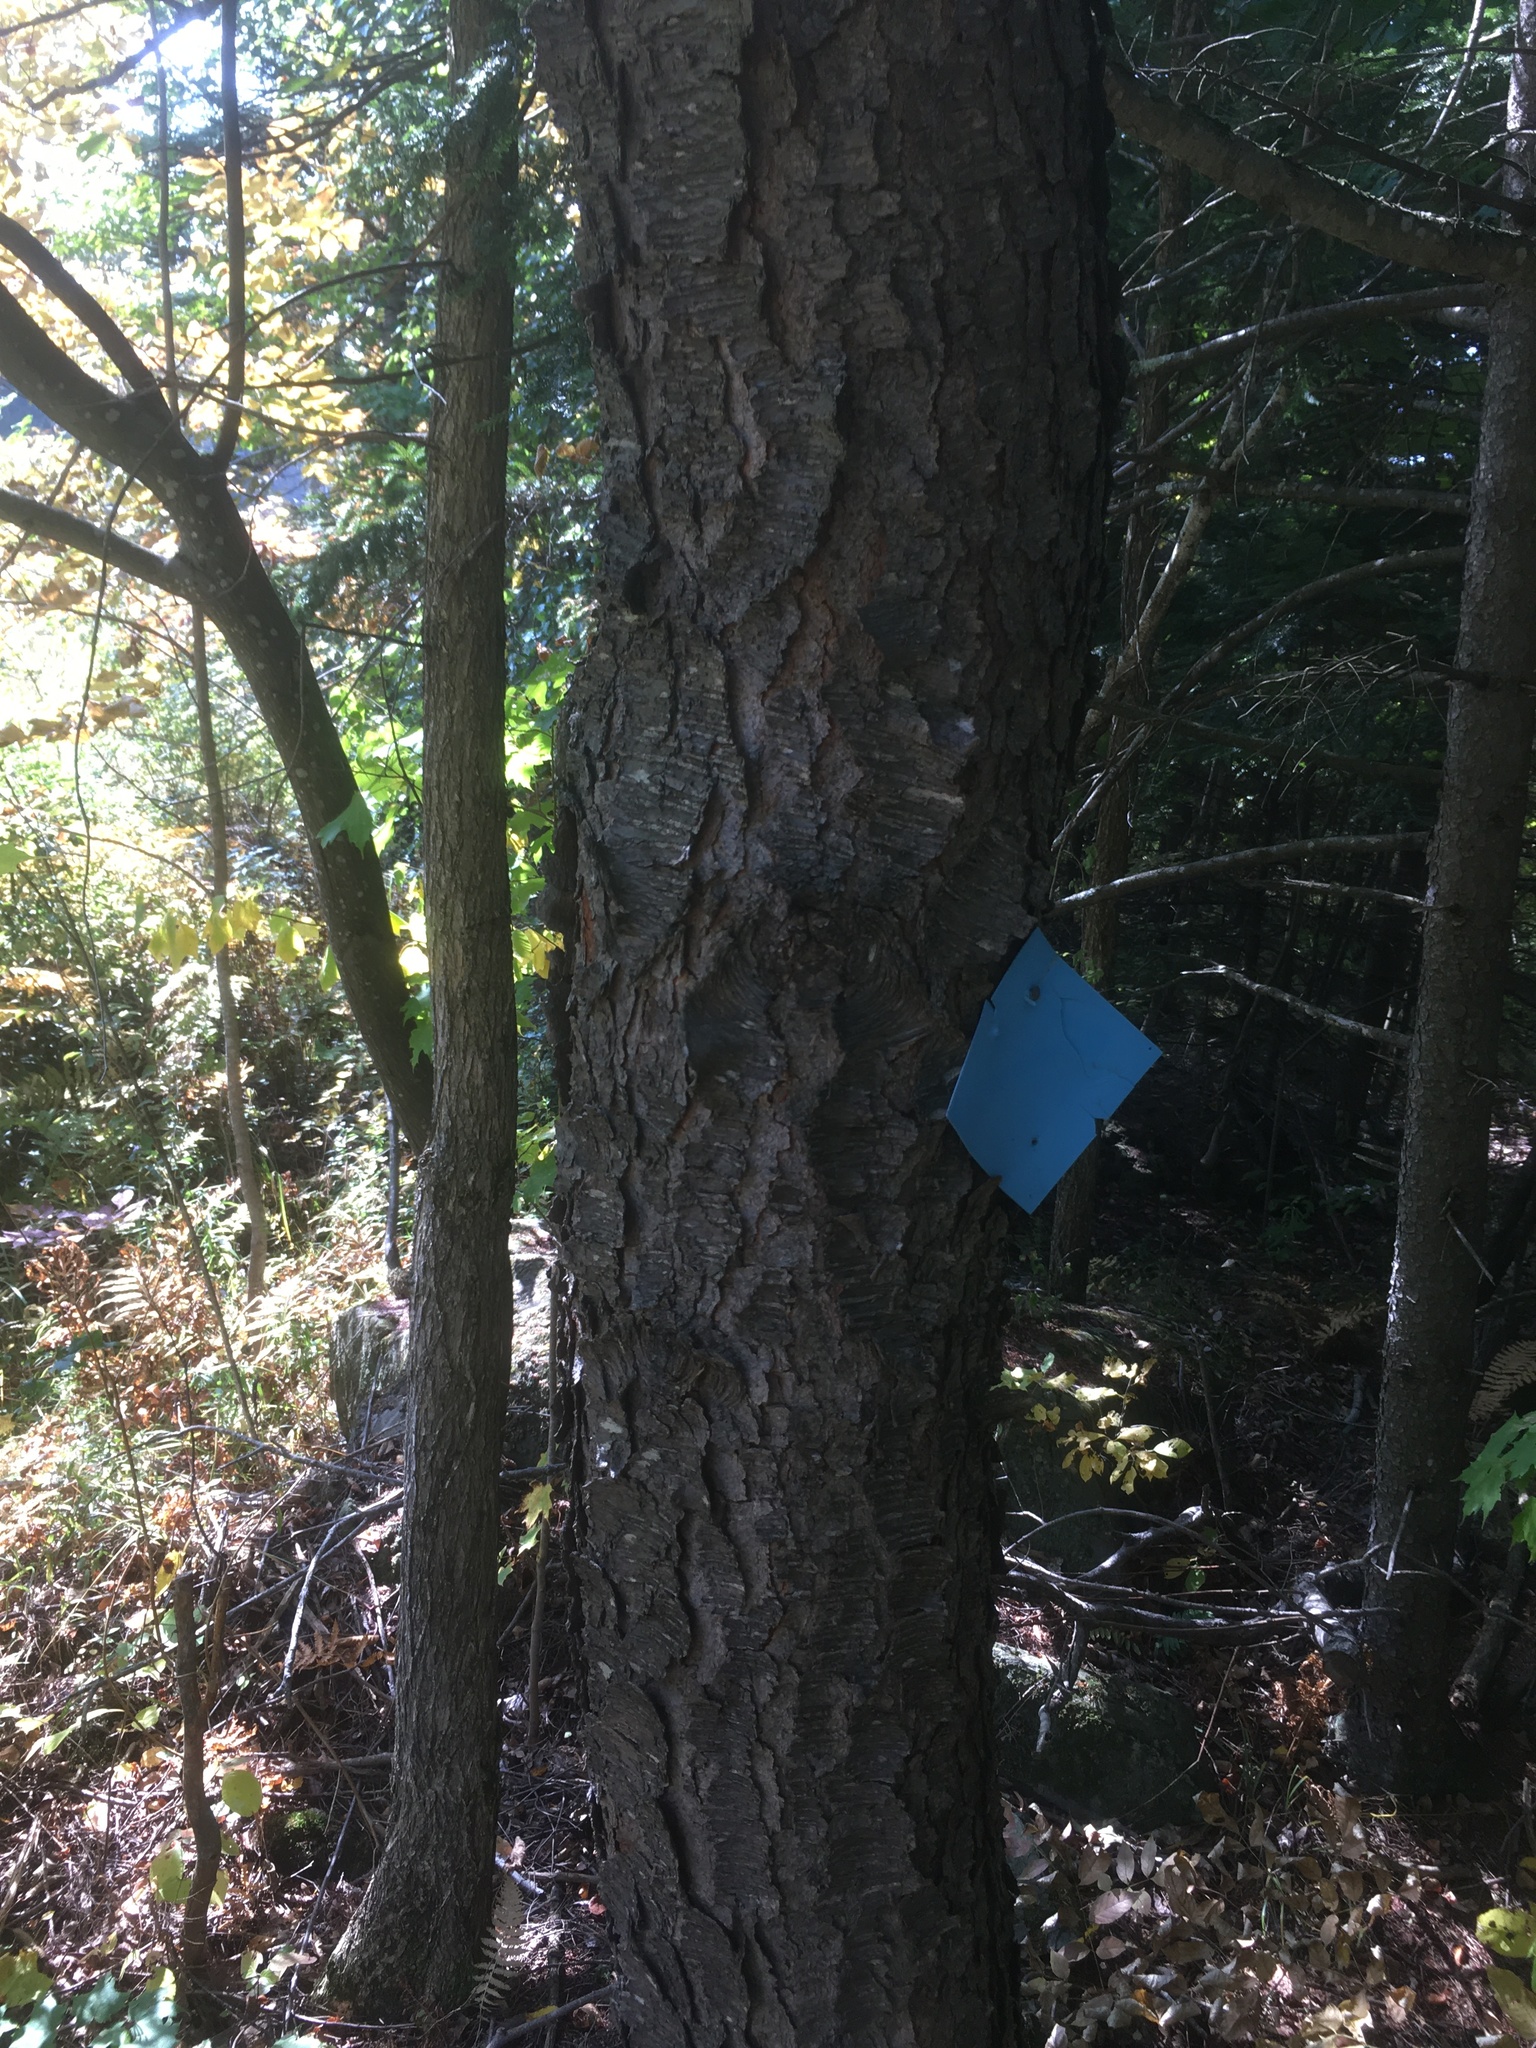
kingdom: Plantae
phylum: Tracheophyta
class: Magnoliopsida
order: Rosales
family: Rosaceae
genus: Prunus
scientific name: Prunus serotina
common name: Black cherry
